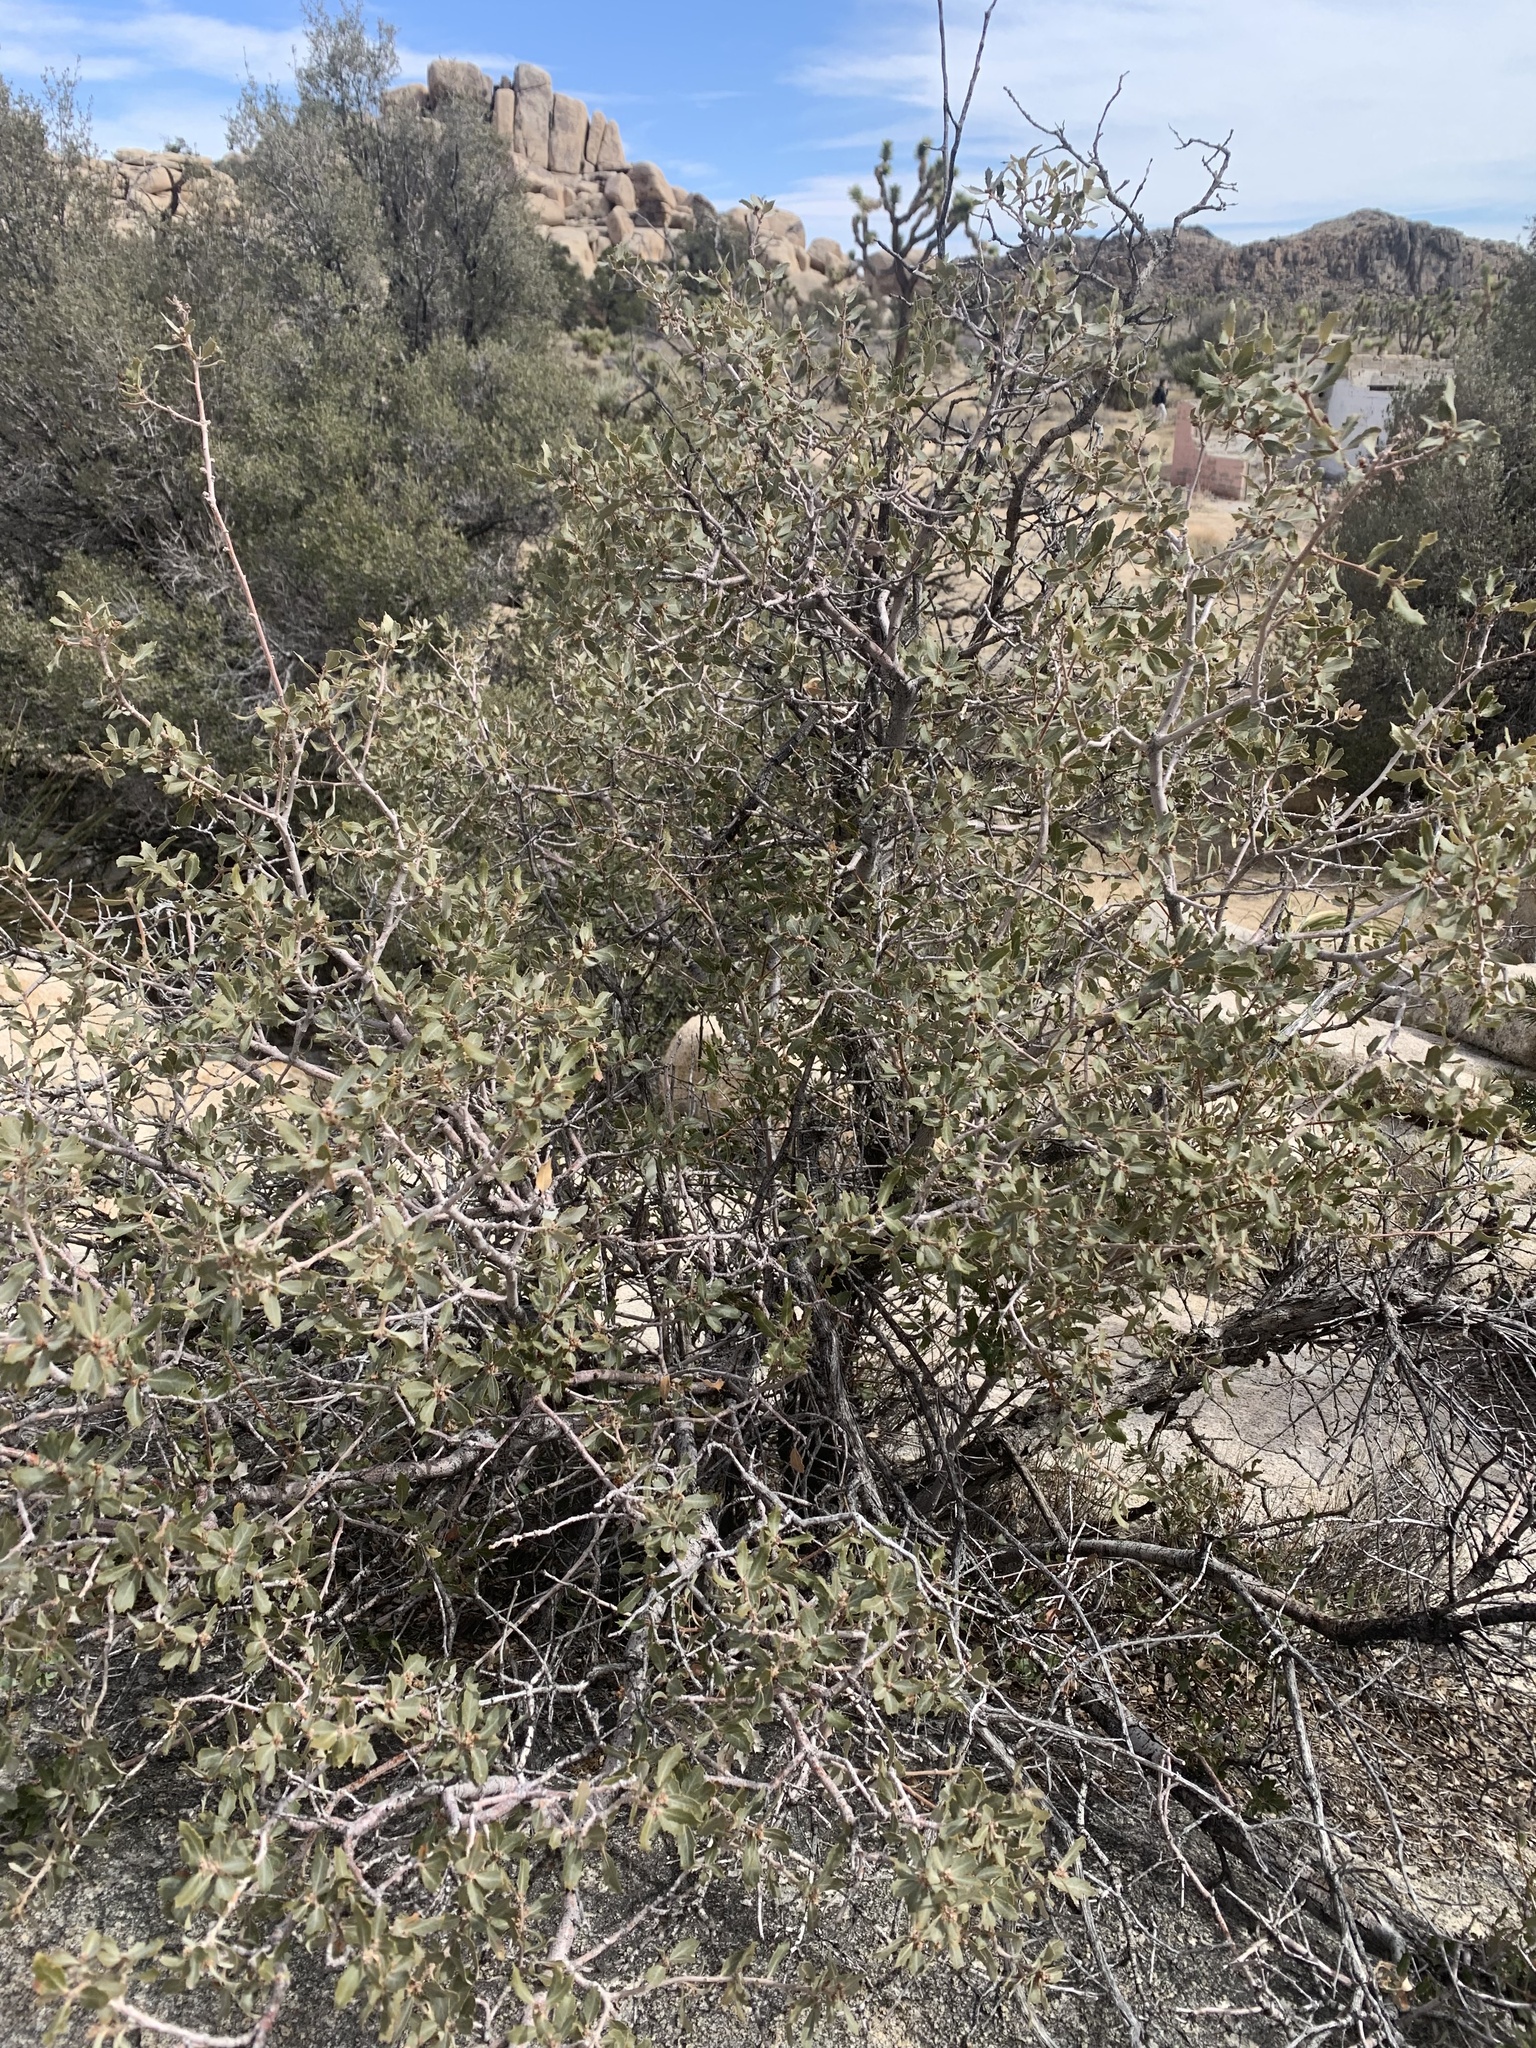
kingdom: Plantae
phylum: Tracheophyta
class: Magnoliopsida
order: Fagales
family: Fagaceae
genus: Quercus
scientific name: Quercus cornelius-mulleri
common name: Muller oak
